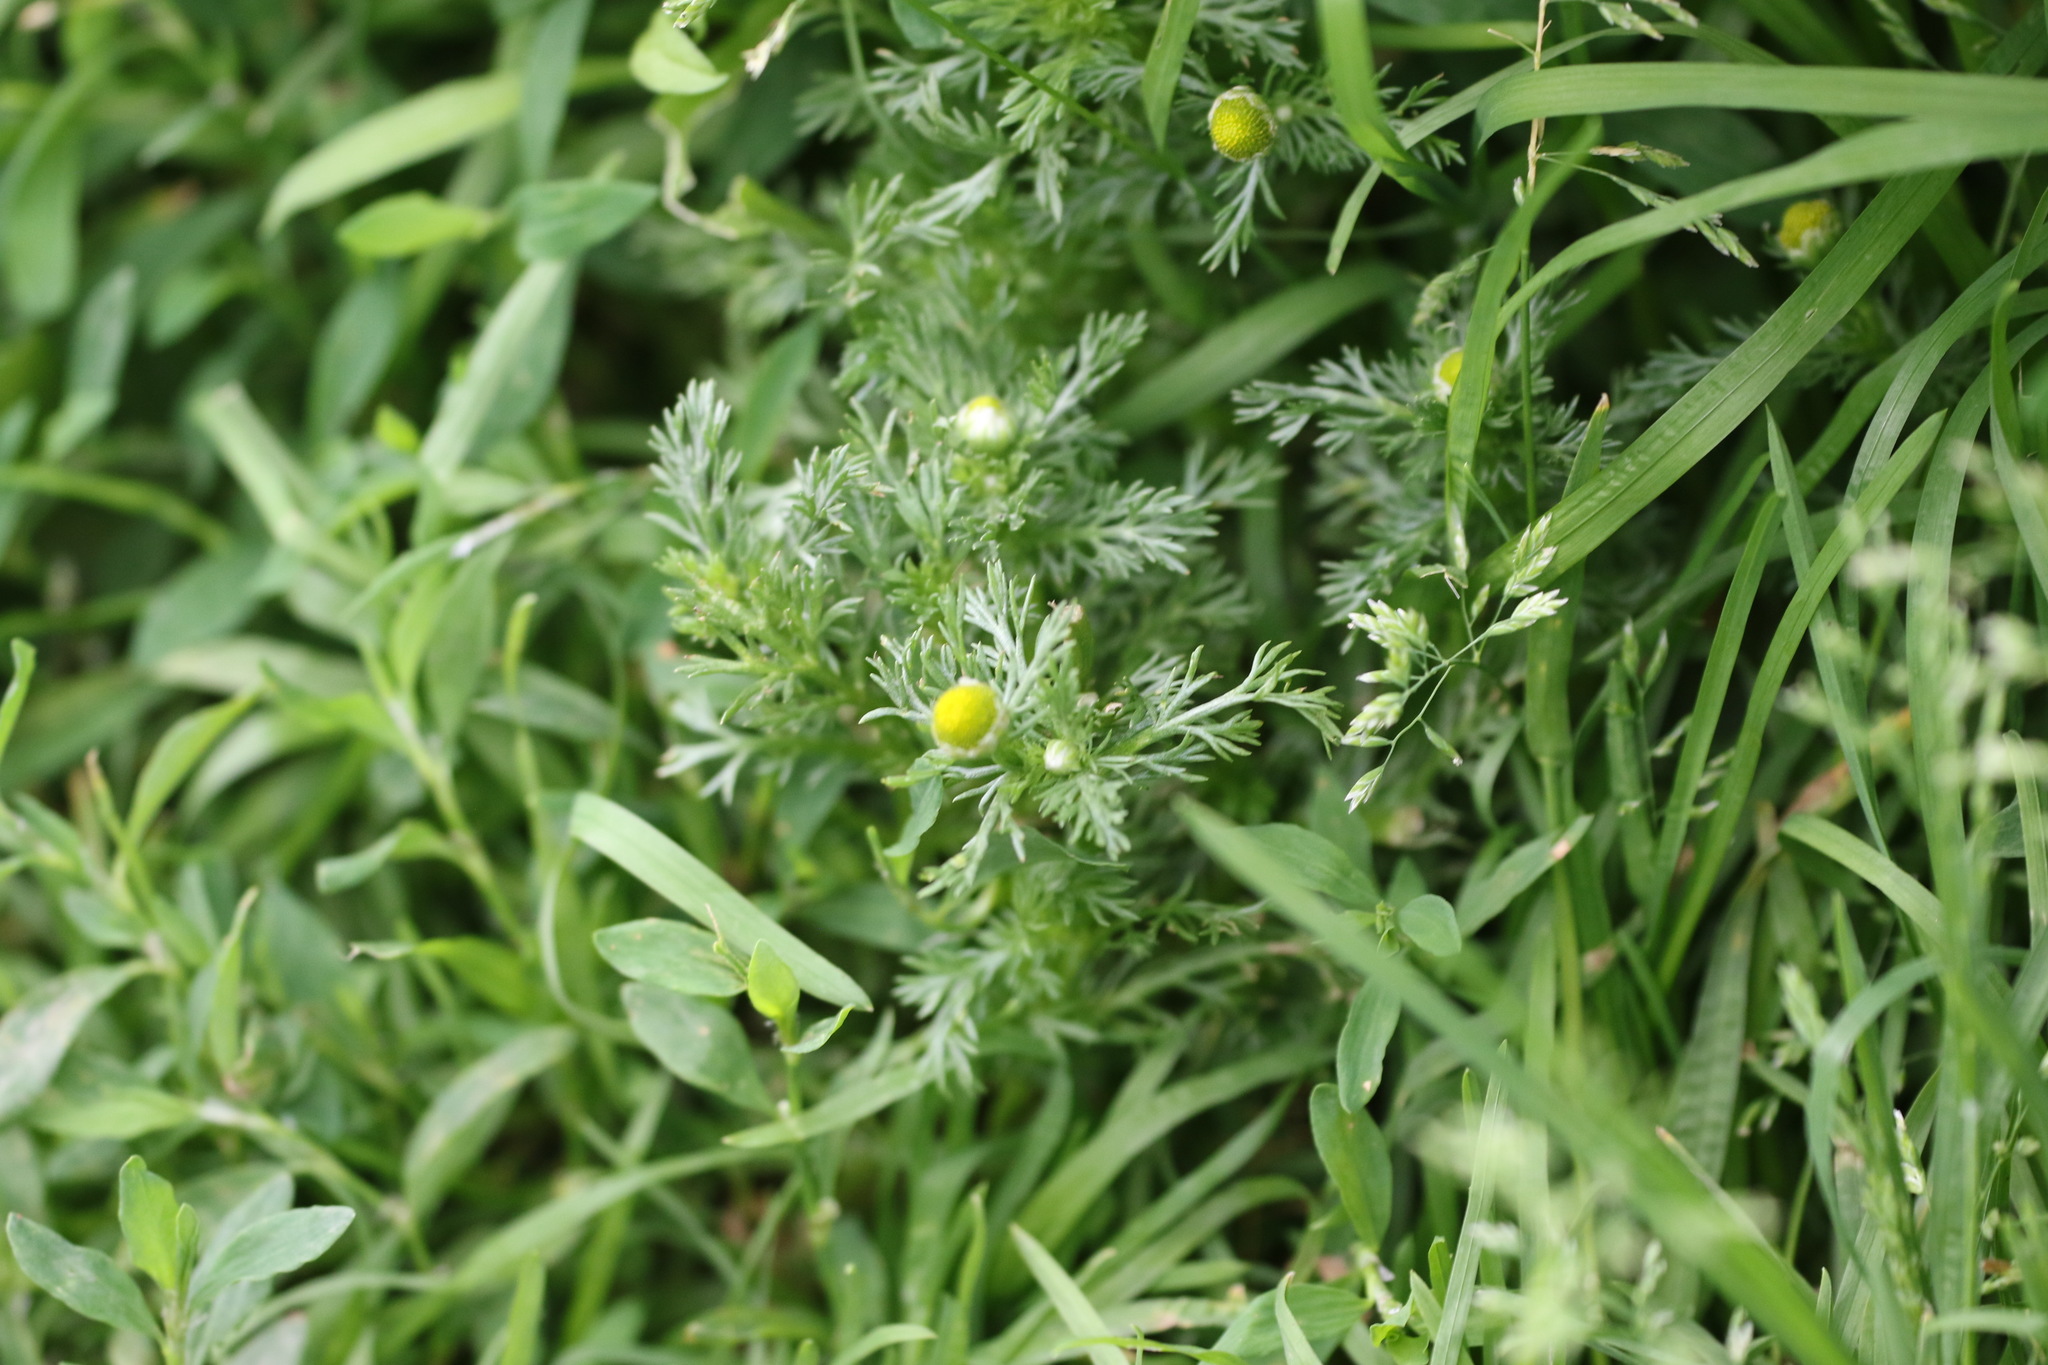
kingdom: Plantae
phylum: Tracheophyta
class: Magnoliopsida
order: Asterales
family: Asteraceae
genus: Matricaria
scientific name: Matricaria discoidea
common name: Disc mayweed
